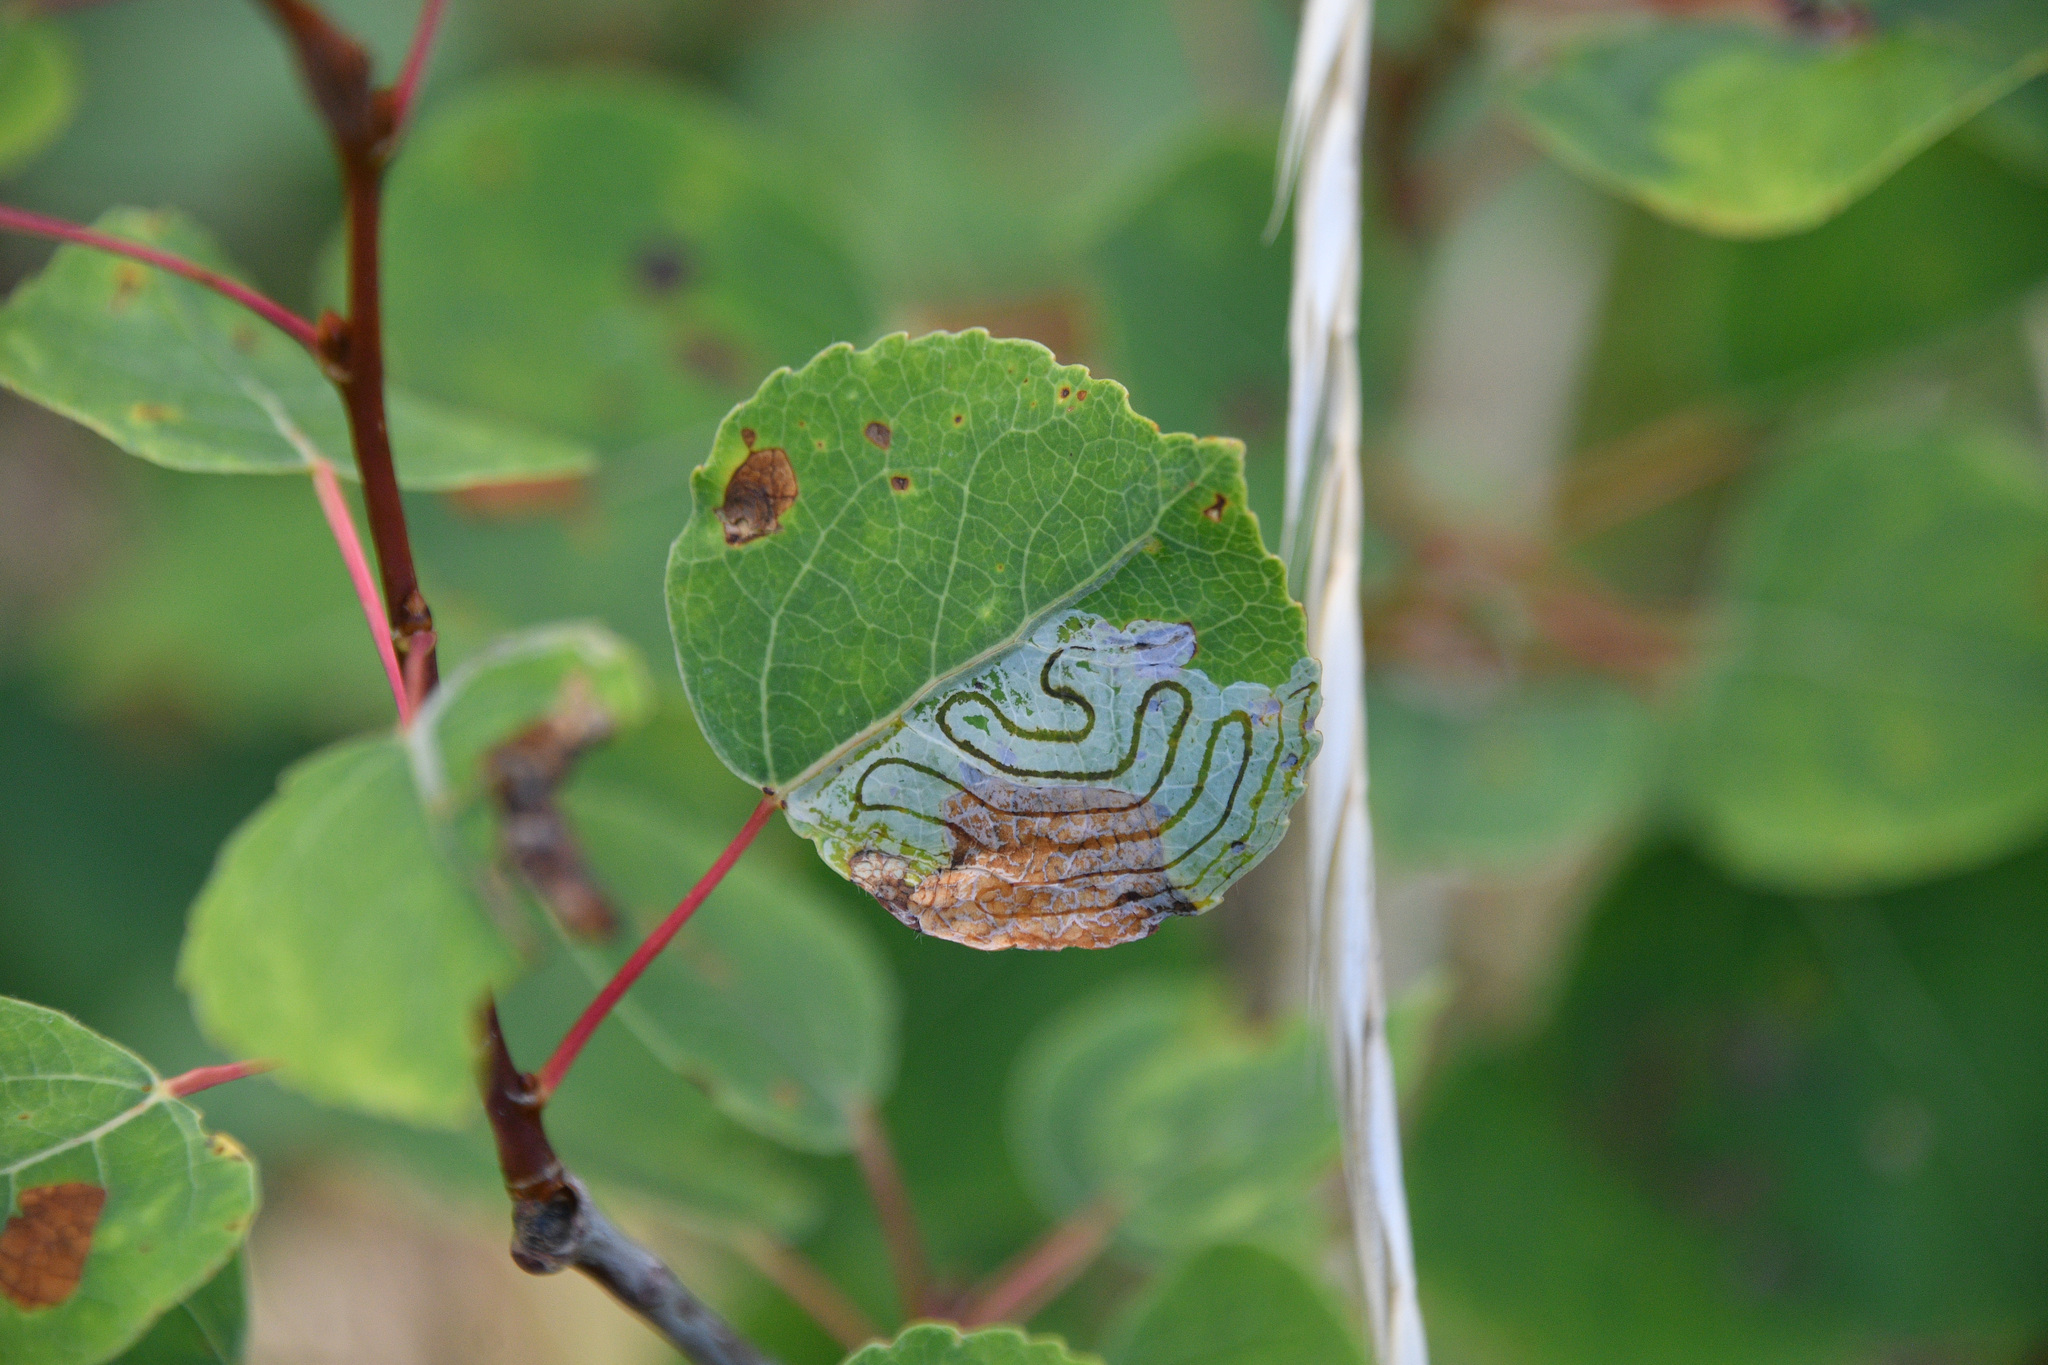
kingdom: Animalia
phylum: Arthropoda
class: Insecta
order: Lepidoptera
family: Gracillariidae
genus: Phyllocnistis
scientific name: Phyllocnistis populiella
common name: Aspen serpentine leafminer moth
